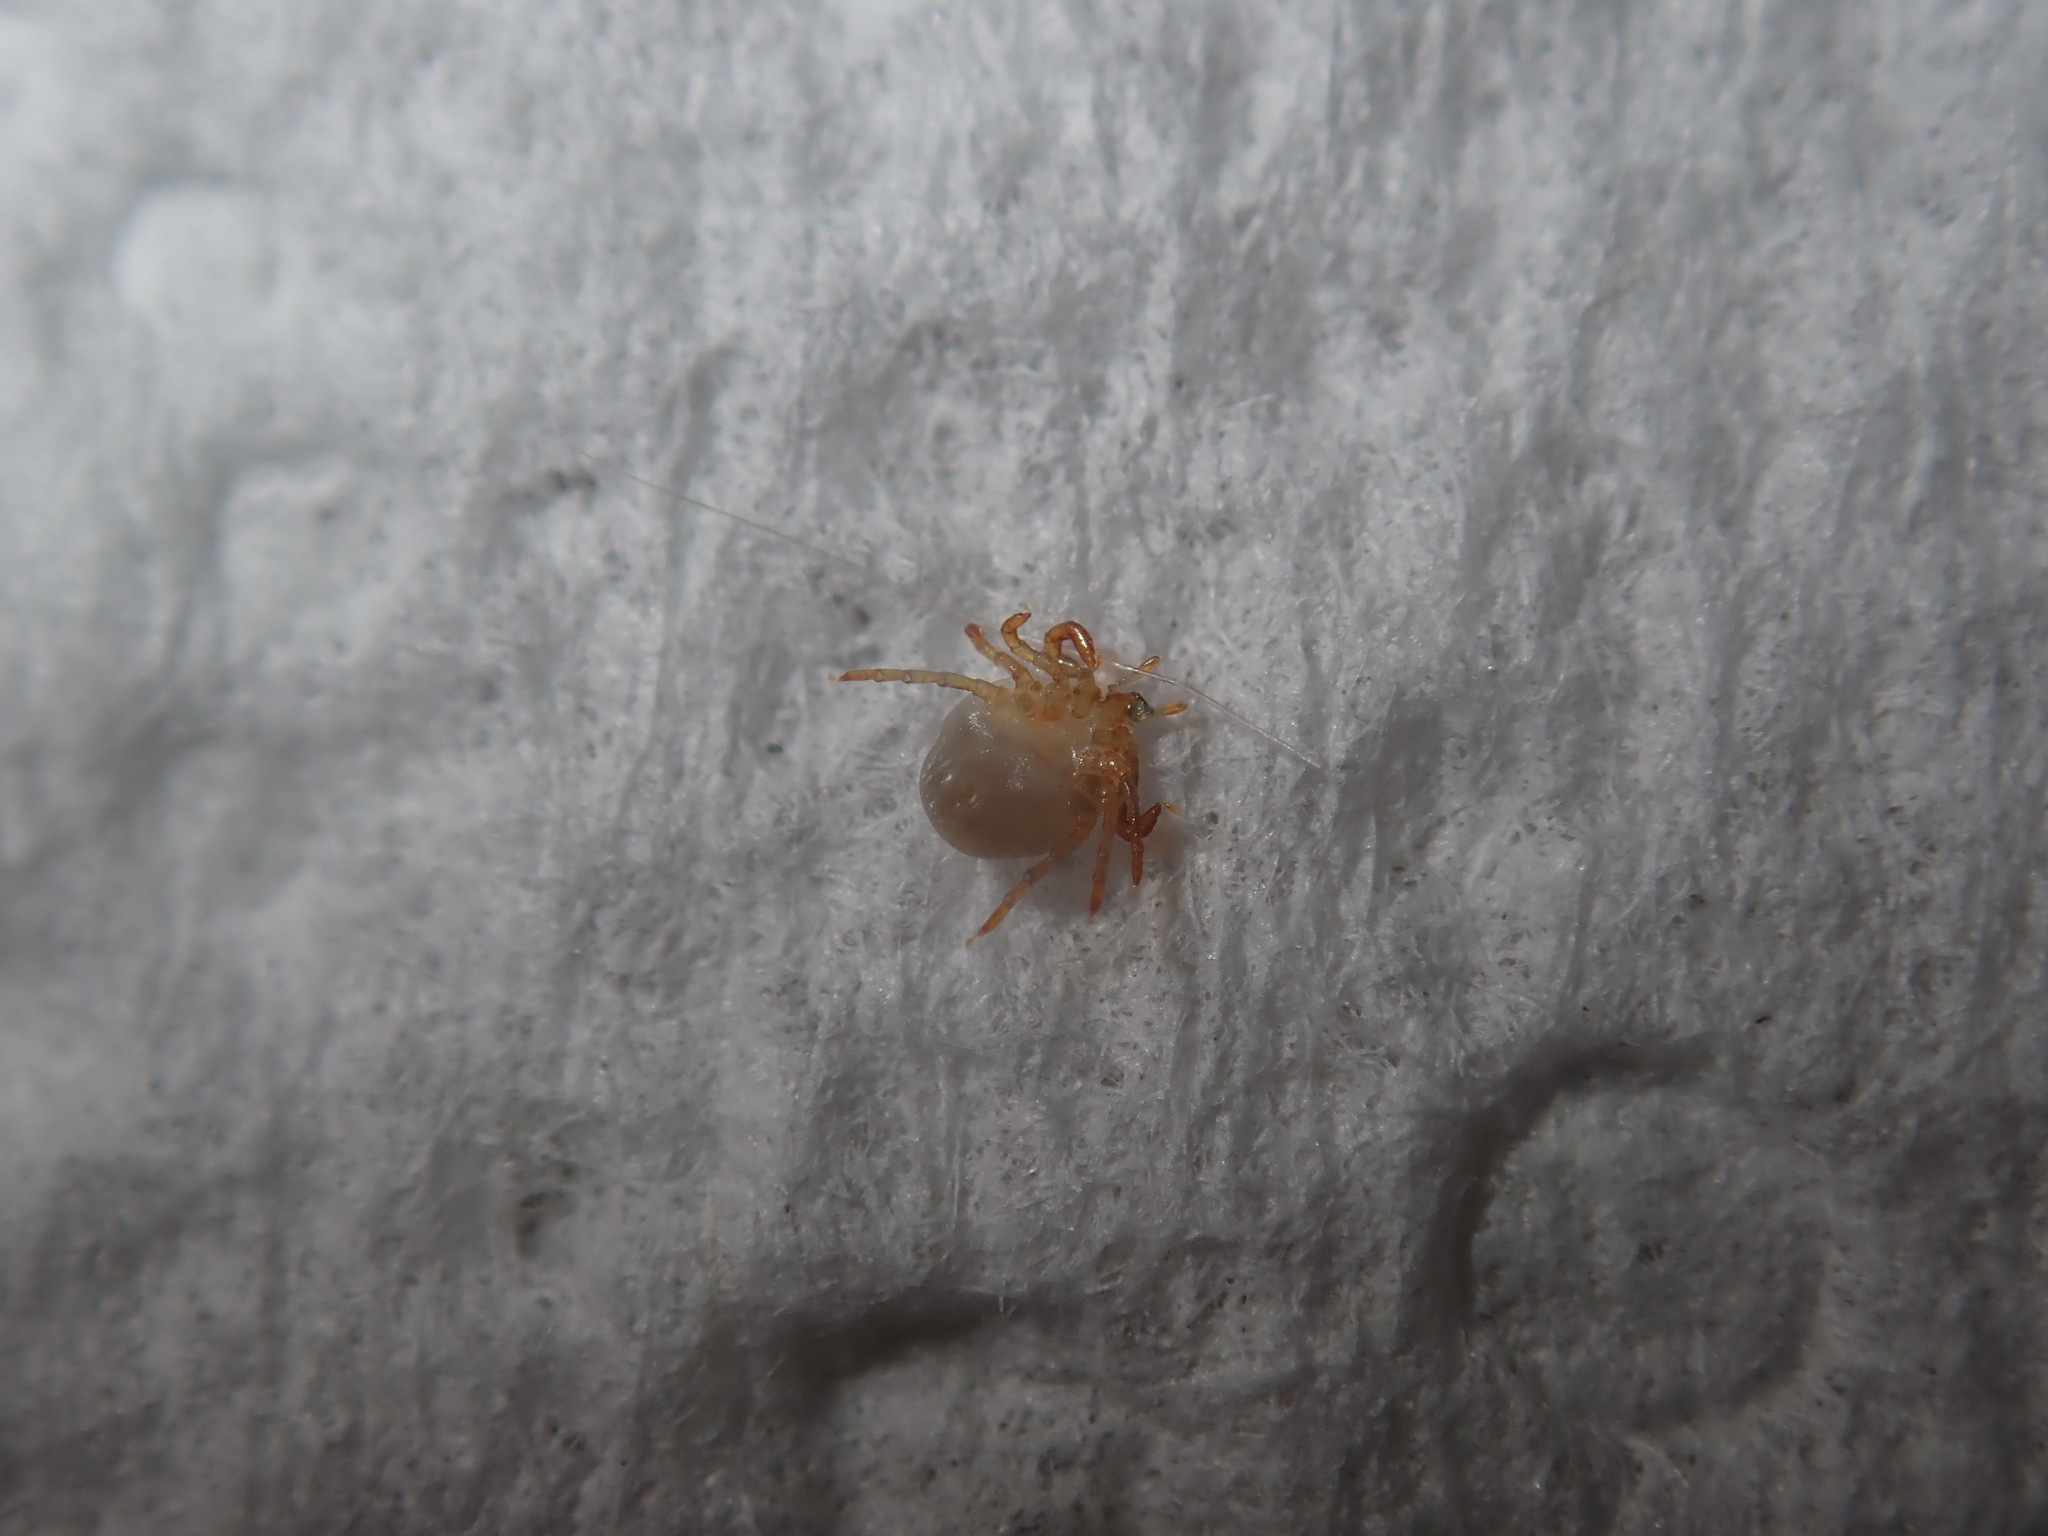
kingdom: Animalia
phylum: Arthropoda
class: Arachnida
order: Ixodida
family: Ixodidae
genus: Ixodes
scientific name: Ixodes holocyclus
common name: Australian paralysis tick
